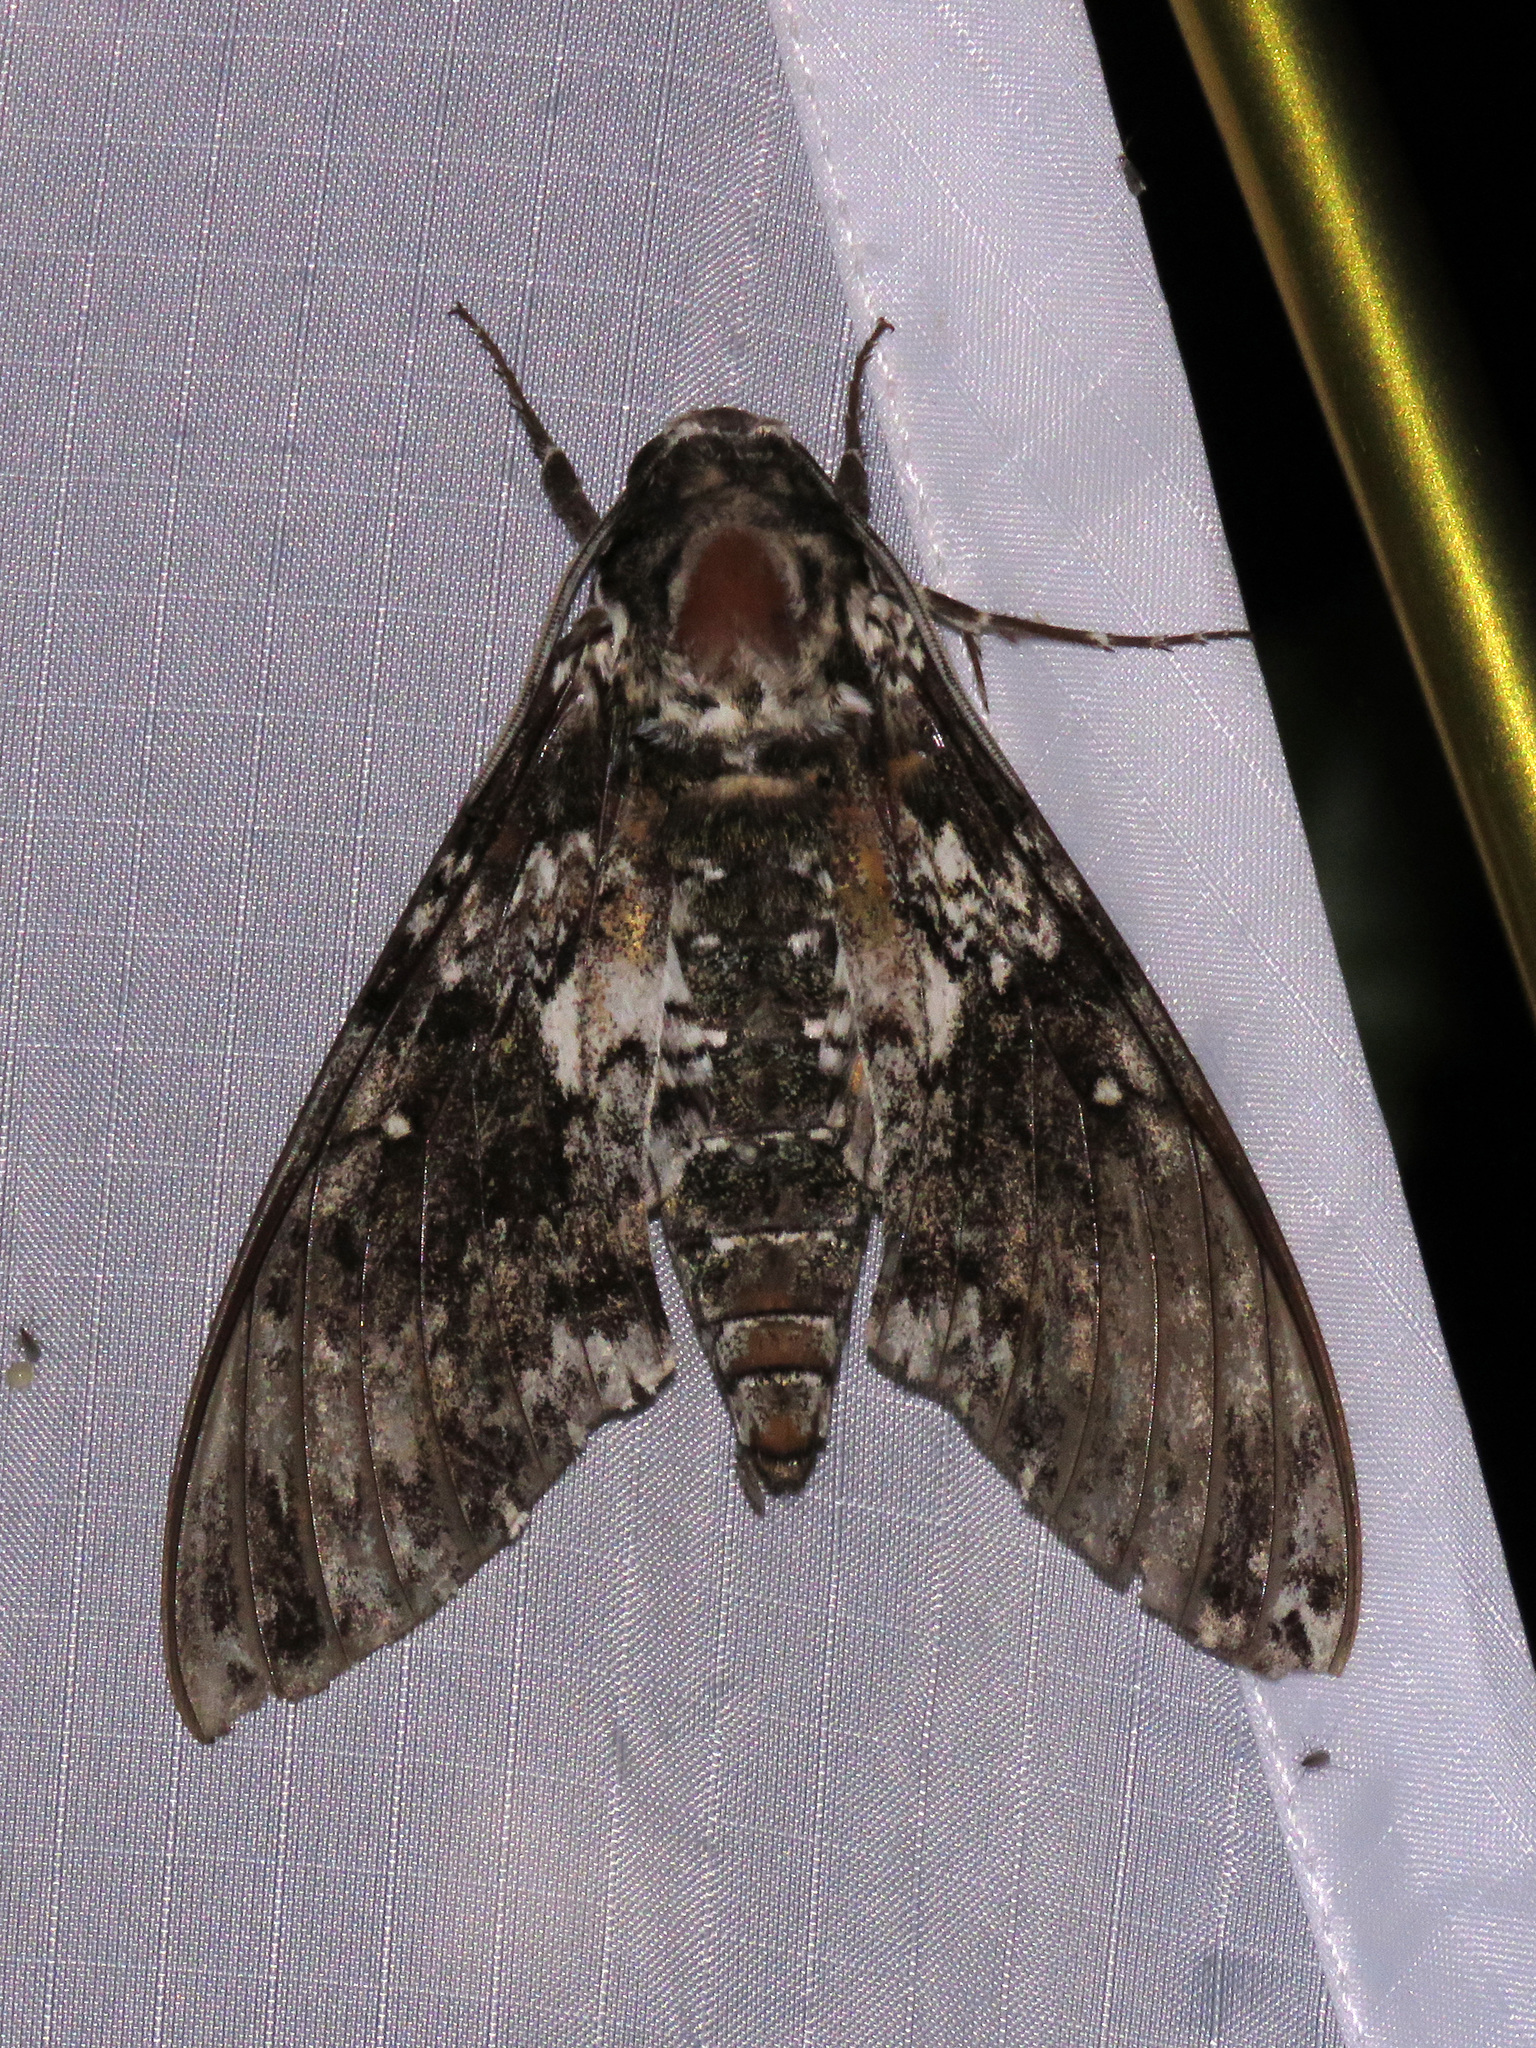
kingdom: Animalia
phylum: Arthropoda
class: Insecta
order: Lepidoptera
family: Sphingidae
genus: Manduca
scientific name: Manduca rustica
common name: Rustic sphinx
